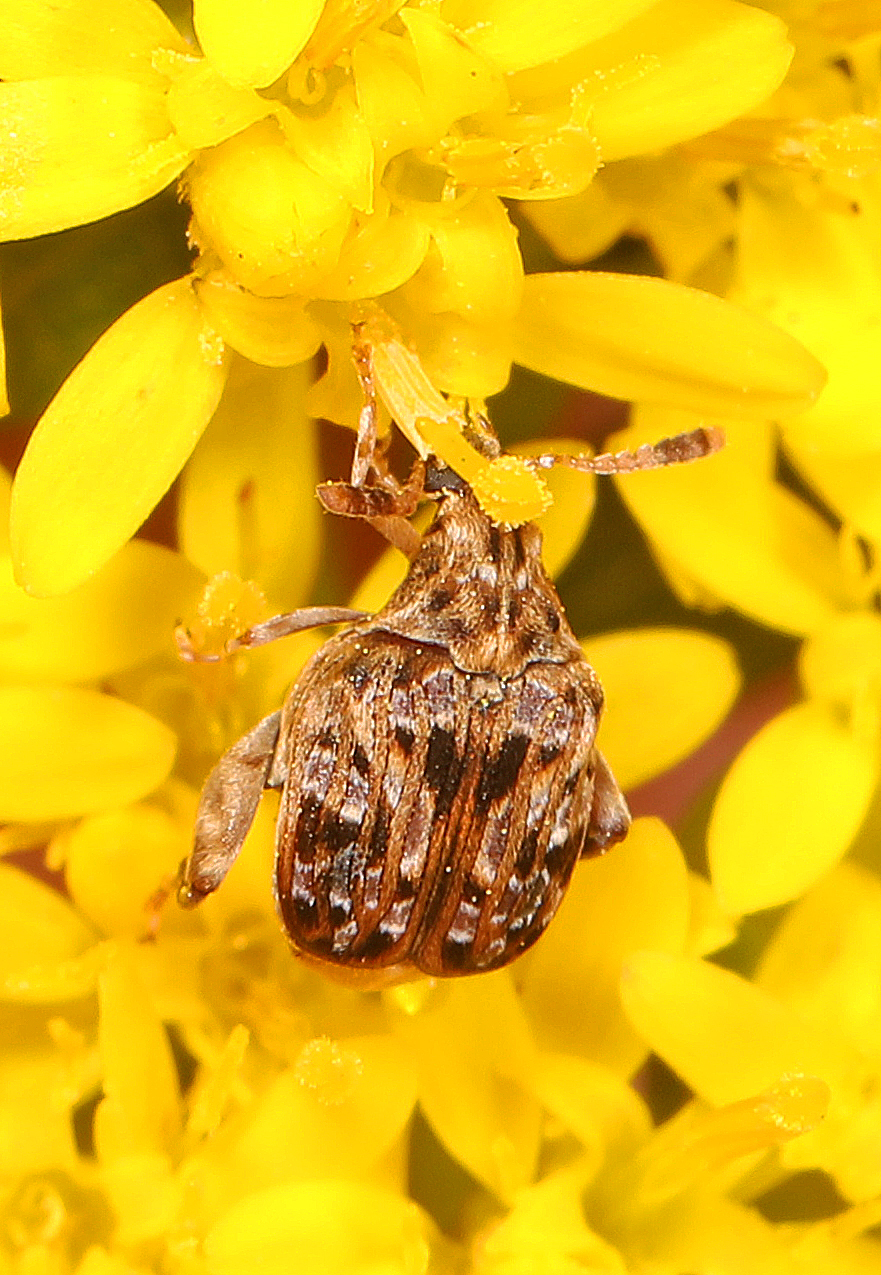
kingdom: Animalia
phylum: Arthropoda
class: Insecta
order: Coleoptera
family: Chrysomelidae
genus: Gibbobruchus
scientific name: Gibbobruchus mimus
